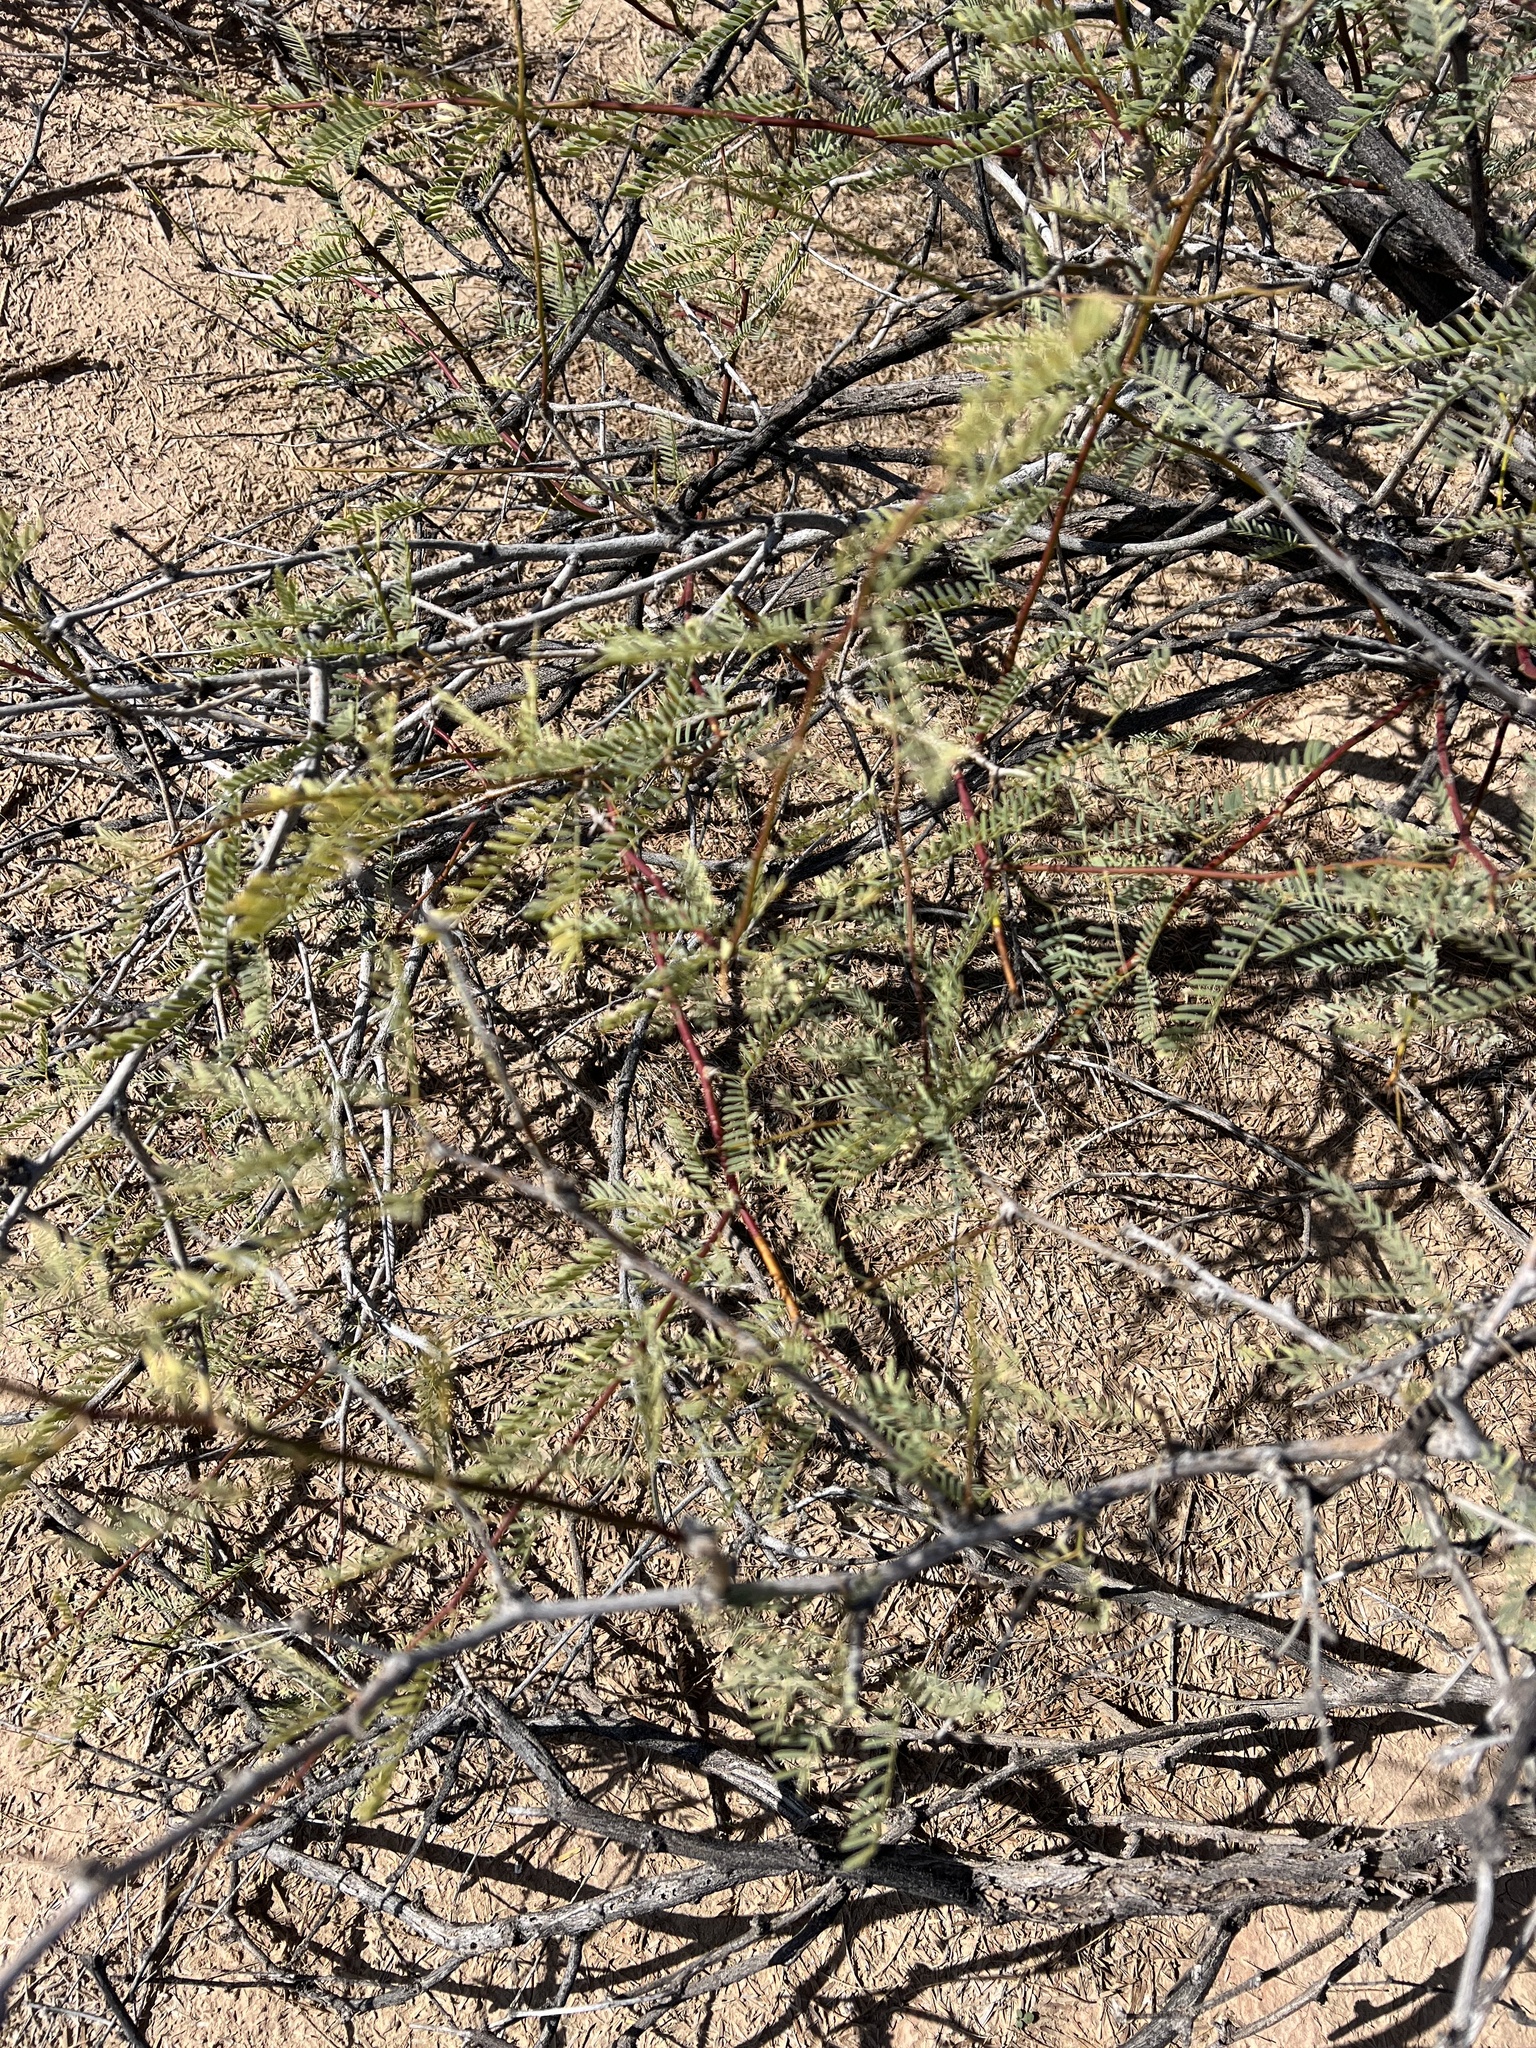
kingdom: Plantae
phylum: Tracheophyta
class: Magnoliopsida
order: Fabales
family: Fabaceae
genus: Prosopis
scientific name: Prosopis pubescens
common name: Screw-bean
